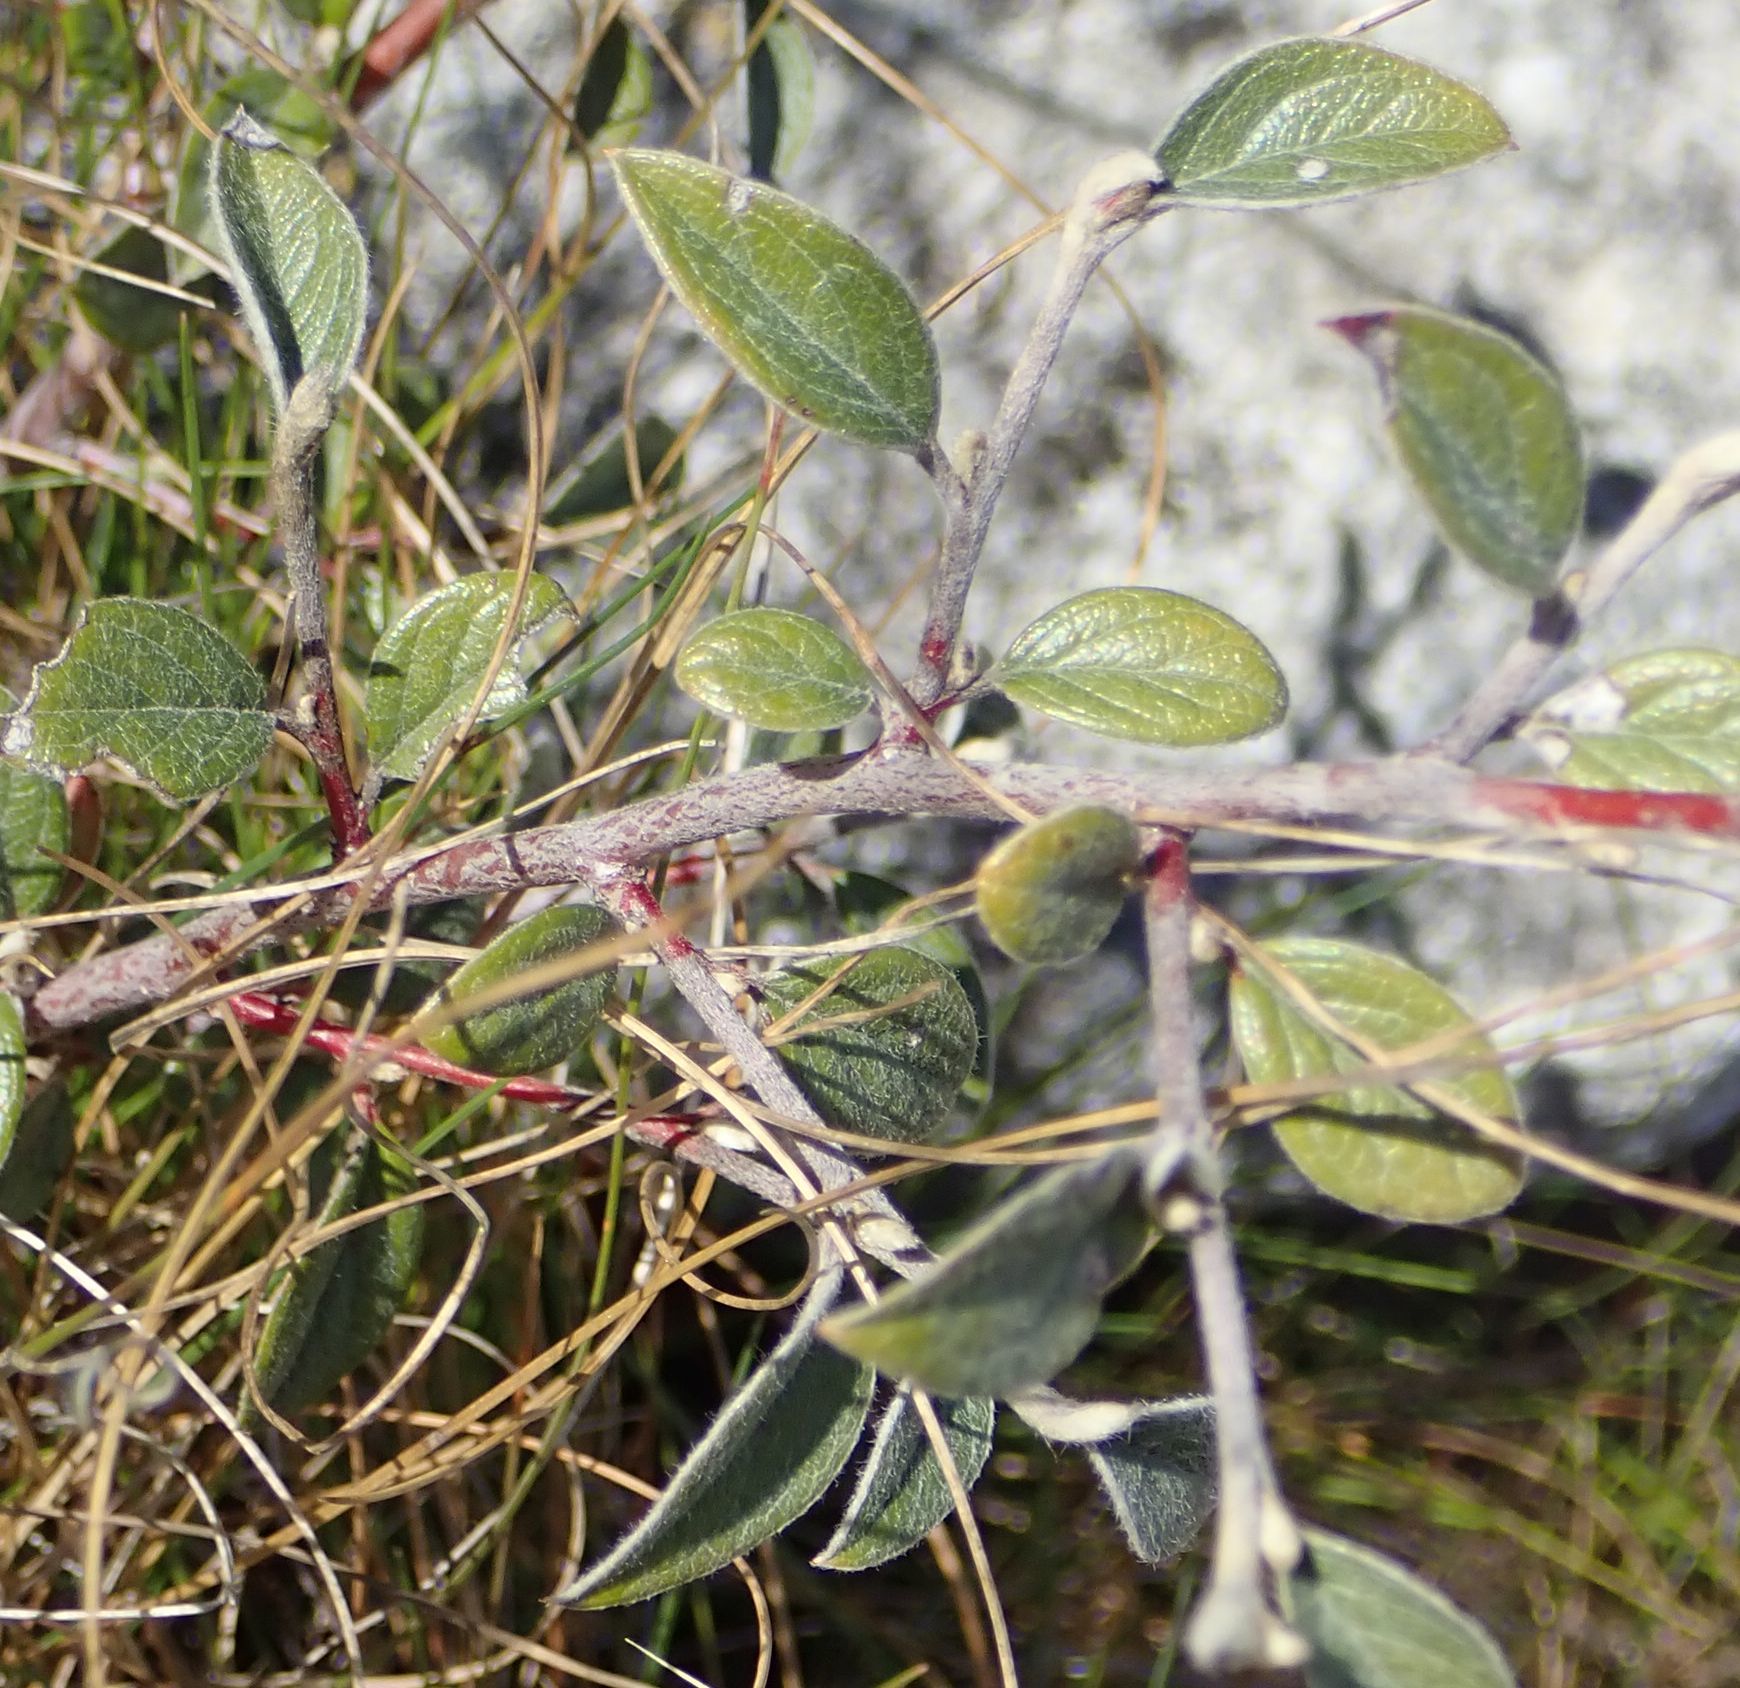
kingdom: Plantae
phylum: Tracheophyta
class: Magnoliopsida
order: Rosales
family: Rosaceae
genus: Cotoneaster
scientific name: Cotoneaster franchetii
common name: Franchet's cotoneaster
